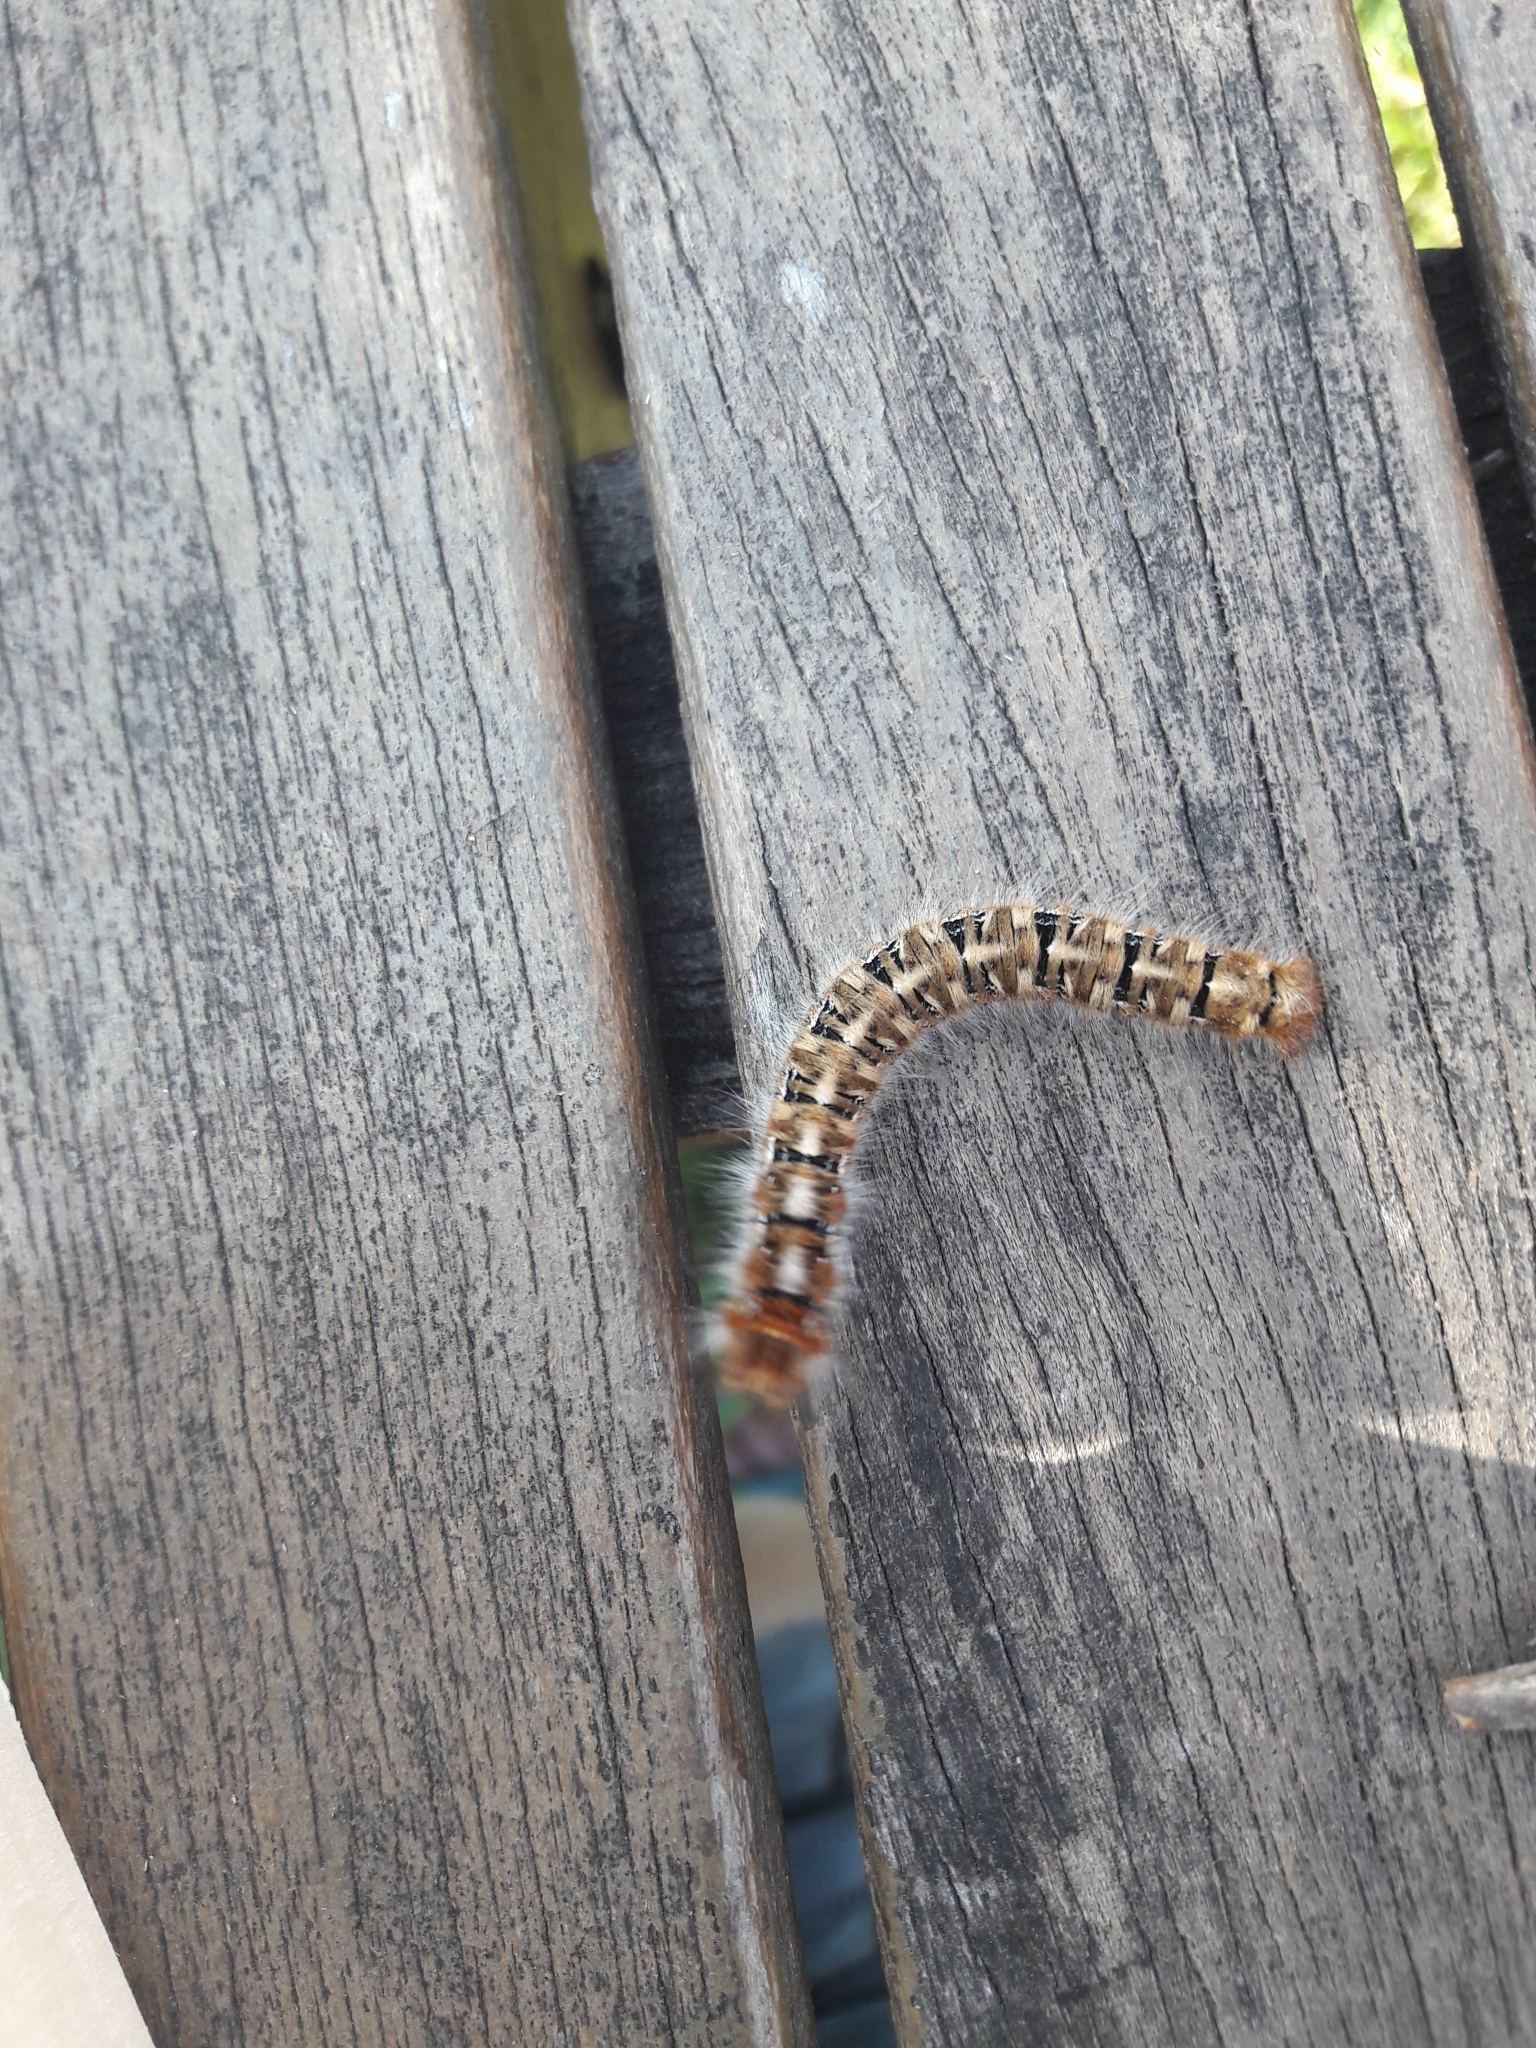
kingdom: Animalia
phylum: Arthropoda
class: Insecta
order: Lepidoptera
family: Lasiocampidae
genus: Lasiocampa
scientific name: Lasiocampa quercus
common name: Oak eggar
